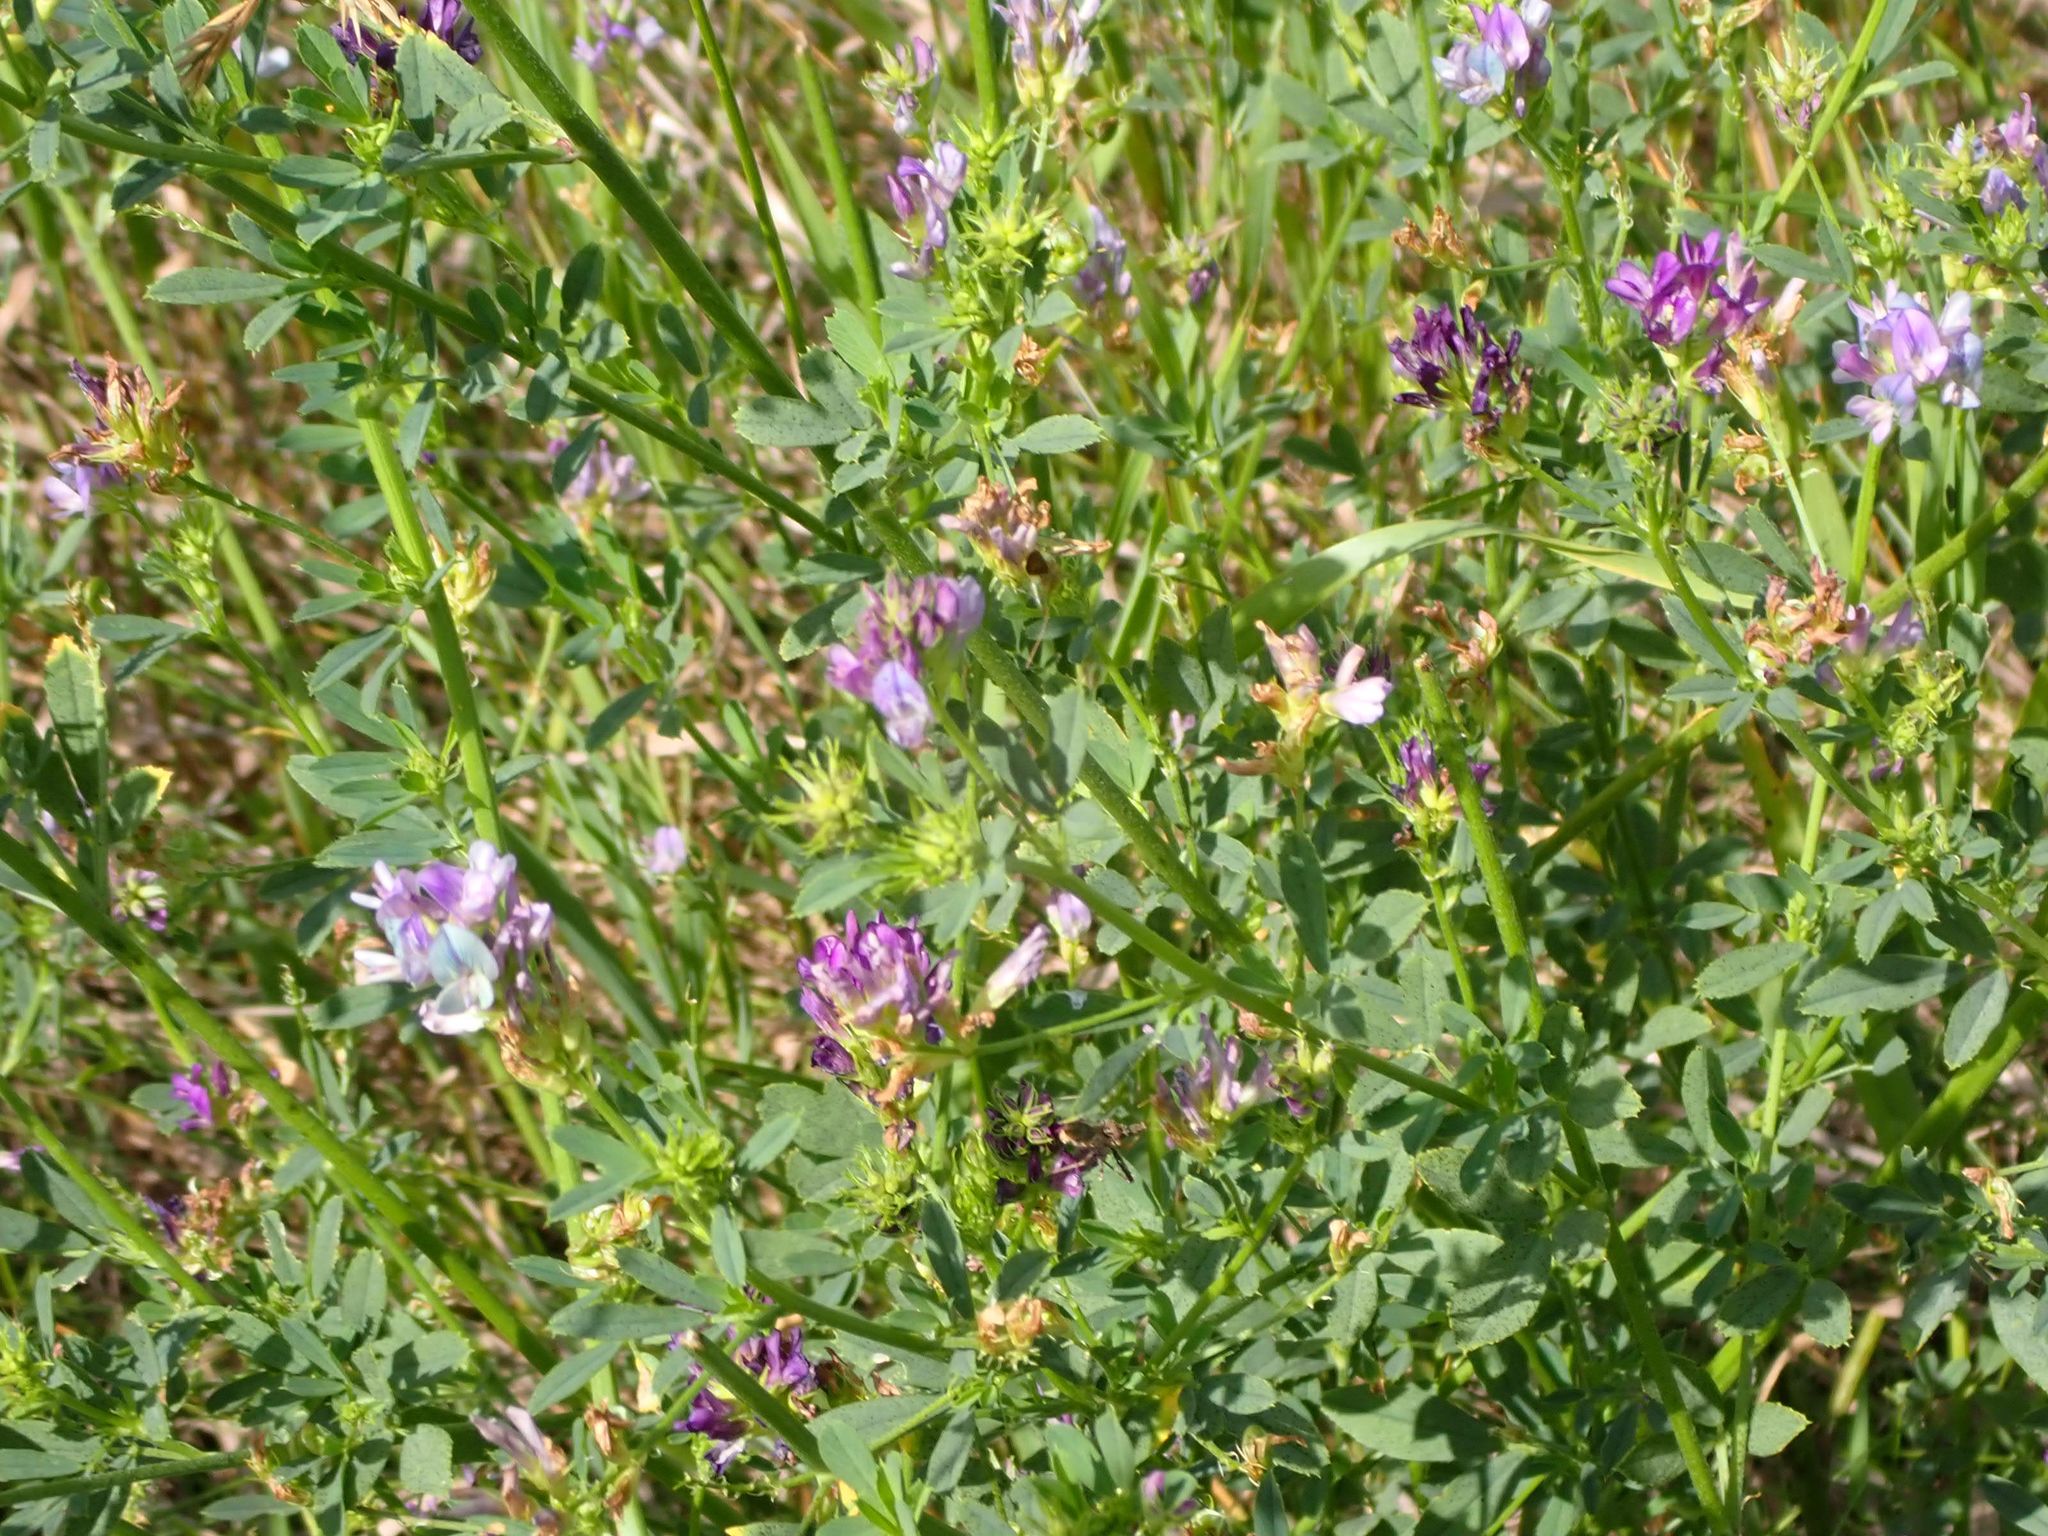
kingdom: Plantae
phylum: Tracheophyta
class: Magnoliopsida
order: Fabales
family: Fabaceae
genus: Medicago
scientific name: Medicago sativa
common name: Alfalfa
